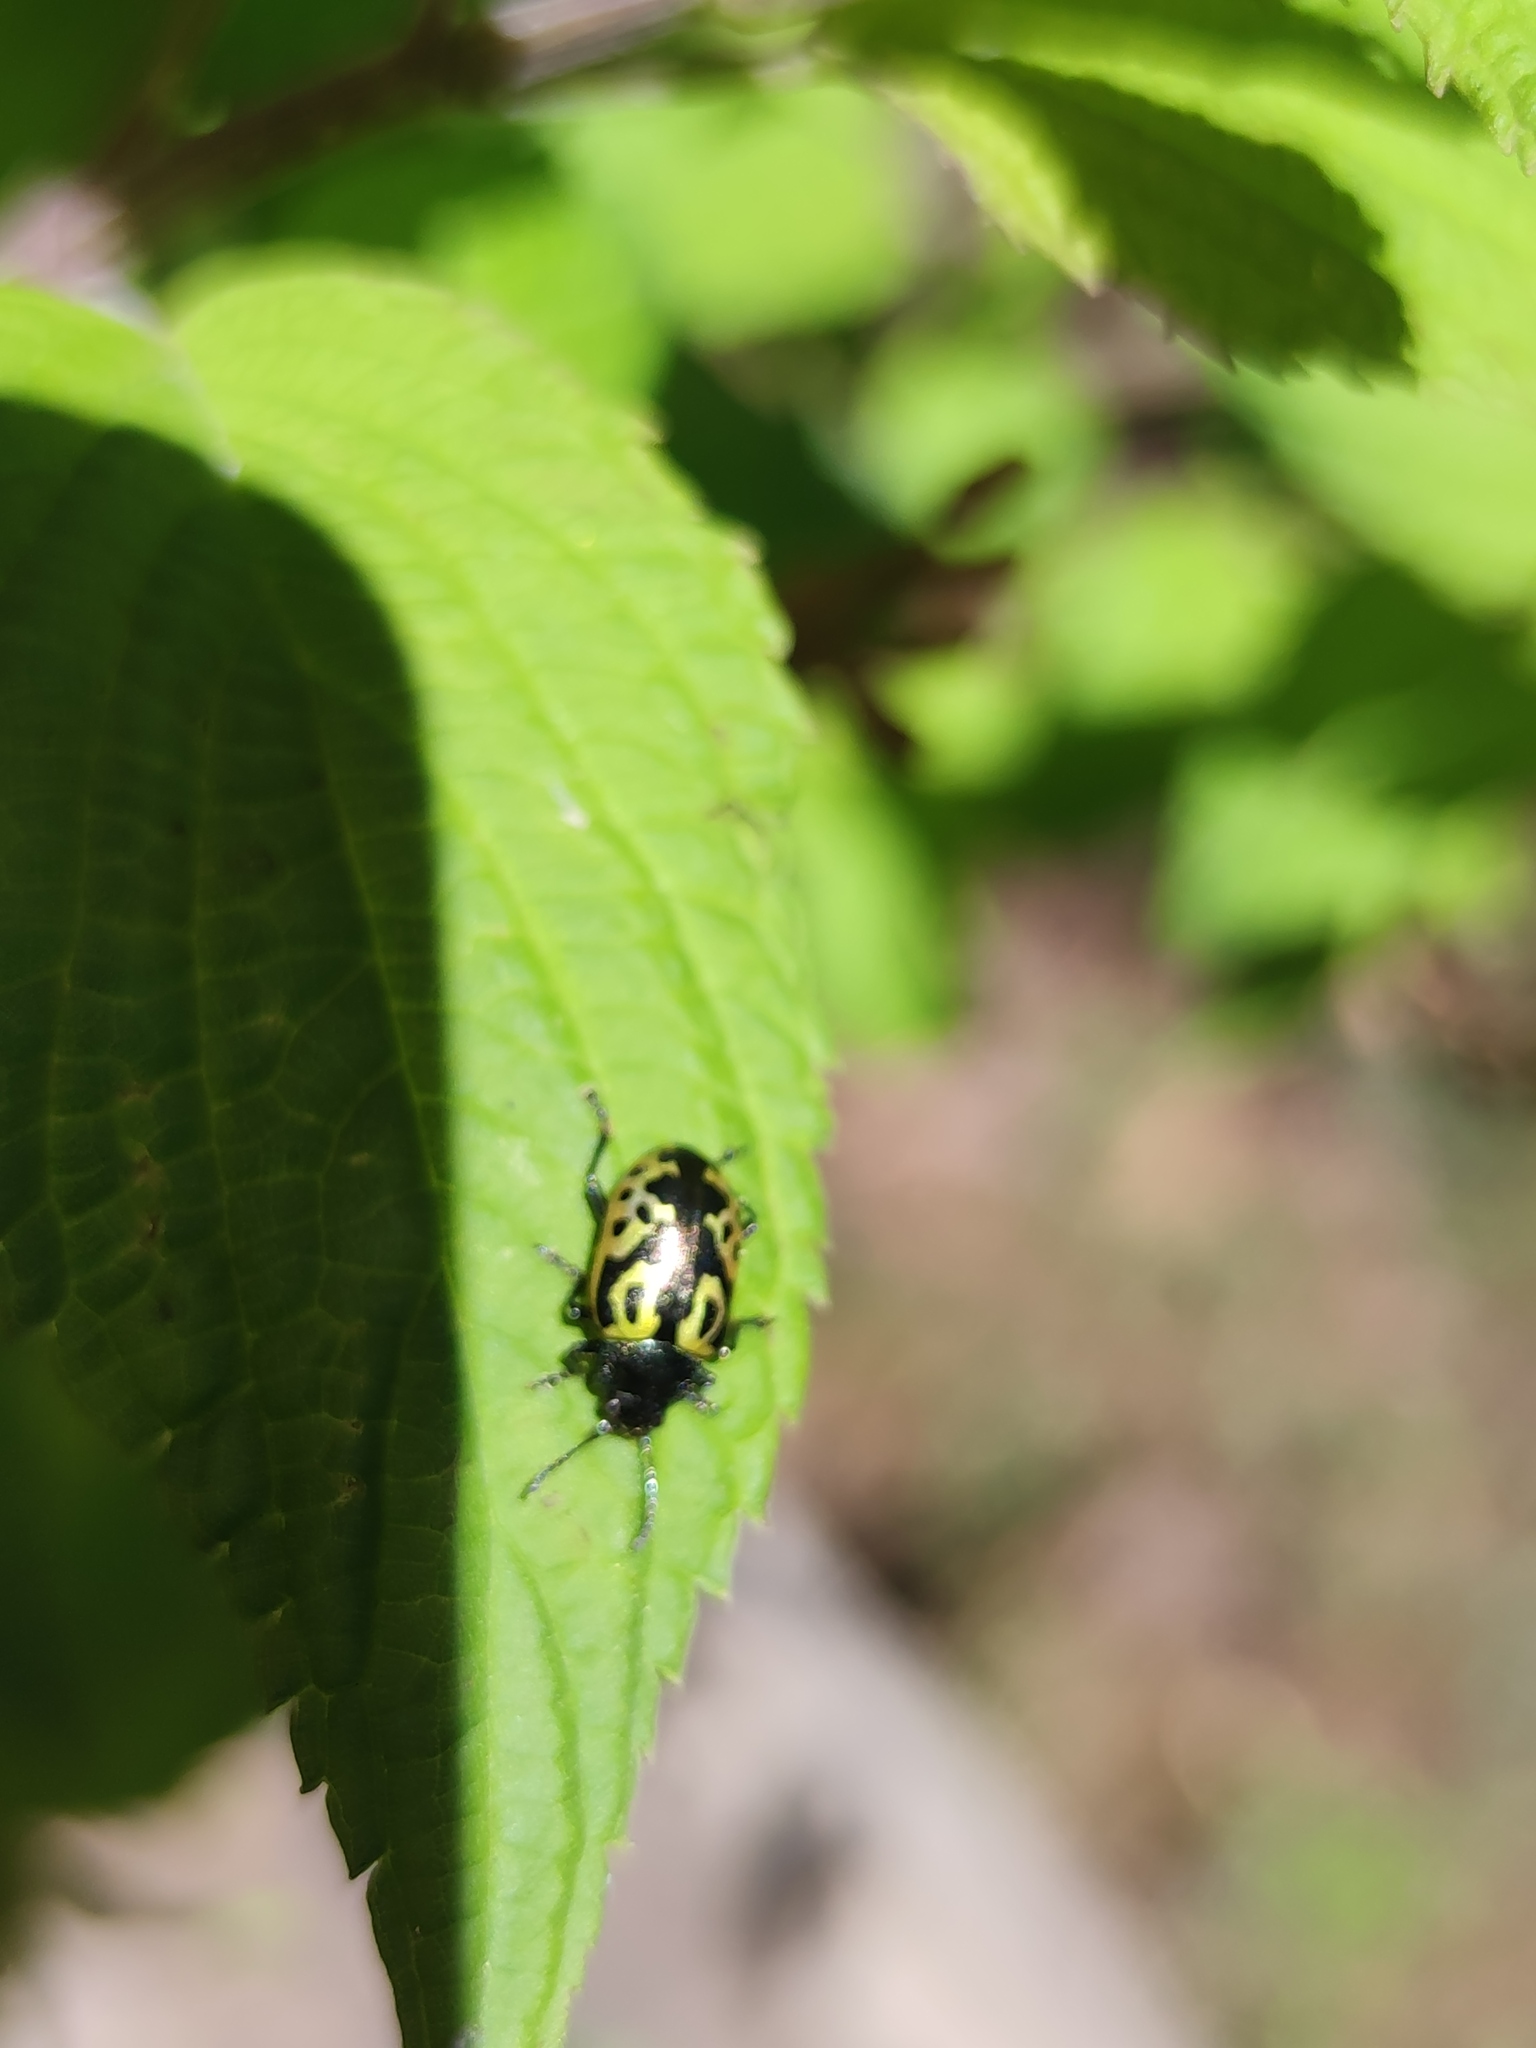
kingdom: Animalia
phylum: Arthropoda
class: Insecta
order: Coleoptera
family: Chrysomelidae
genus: Calligrapha
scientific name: Calligrapha
